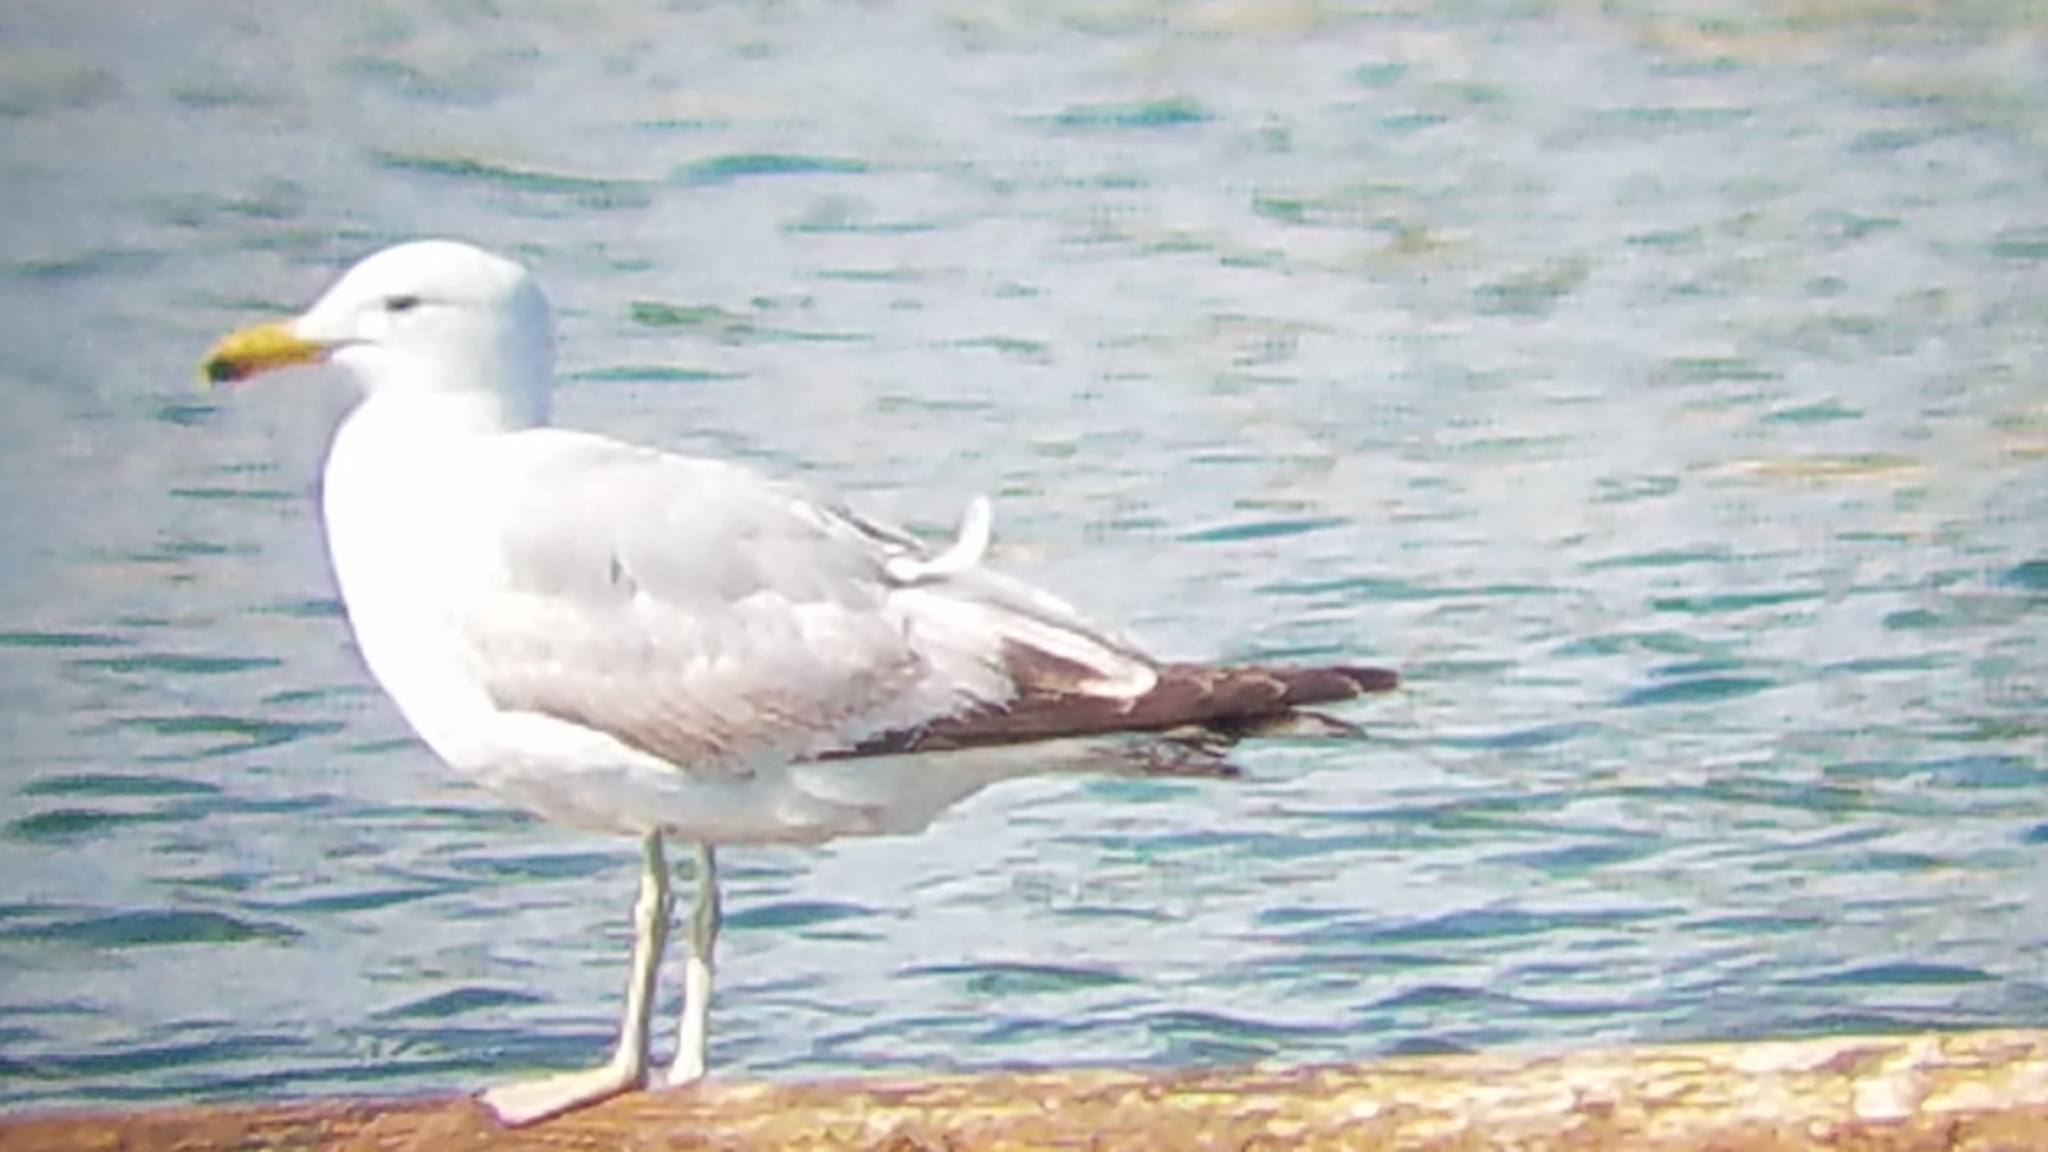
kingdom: Animalia
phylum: Chordata
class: Aves
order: Charadriiformes
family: Laridae
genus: Larus
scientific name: Larus californicus
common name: California gull
